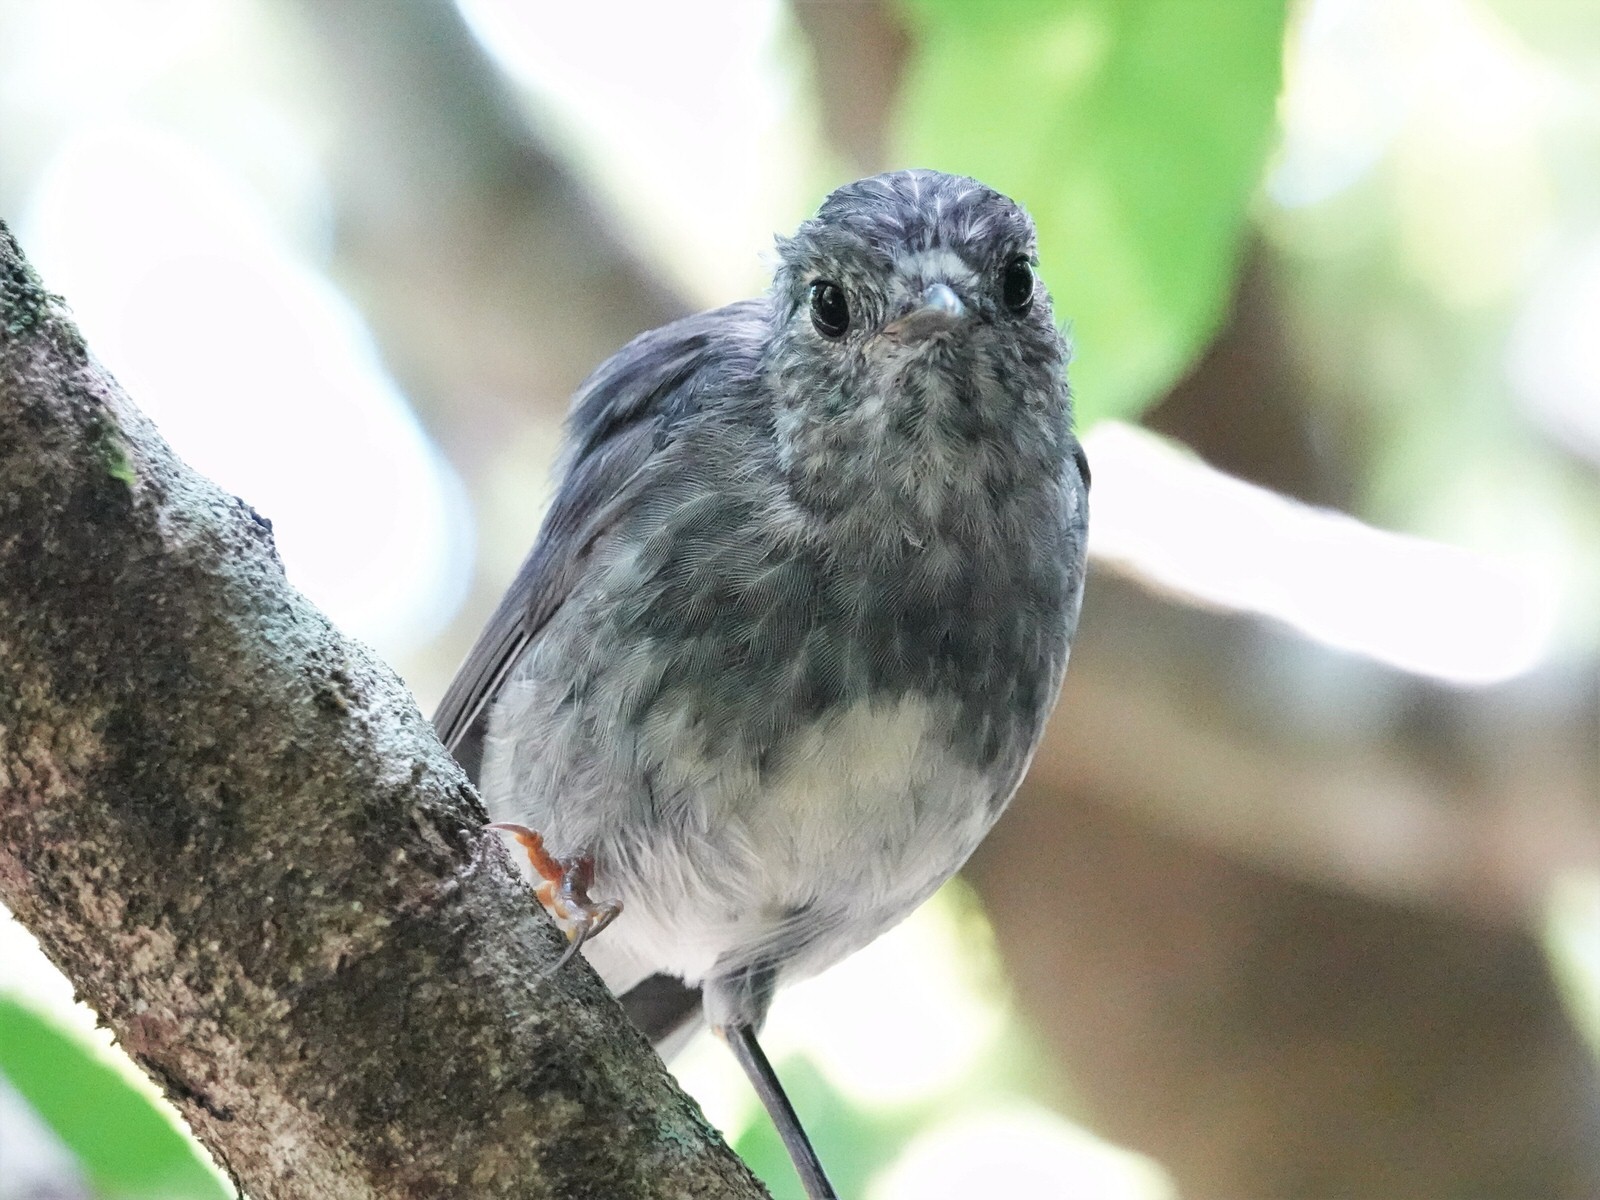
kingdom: Animalia
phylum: Chordata
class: Aves
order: Passeriformes
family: Petroicidae
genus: Petroica
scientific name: Petroica australis
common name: New zealand robin
